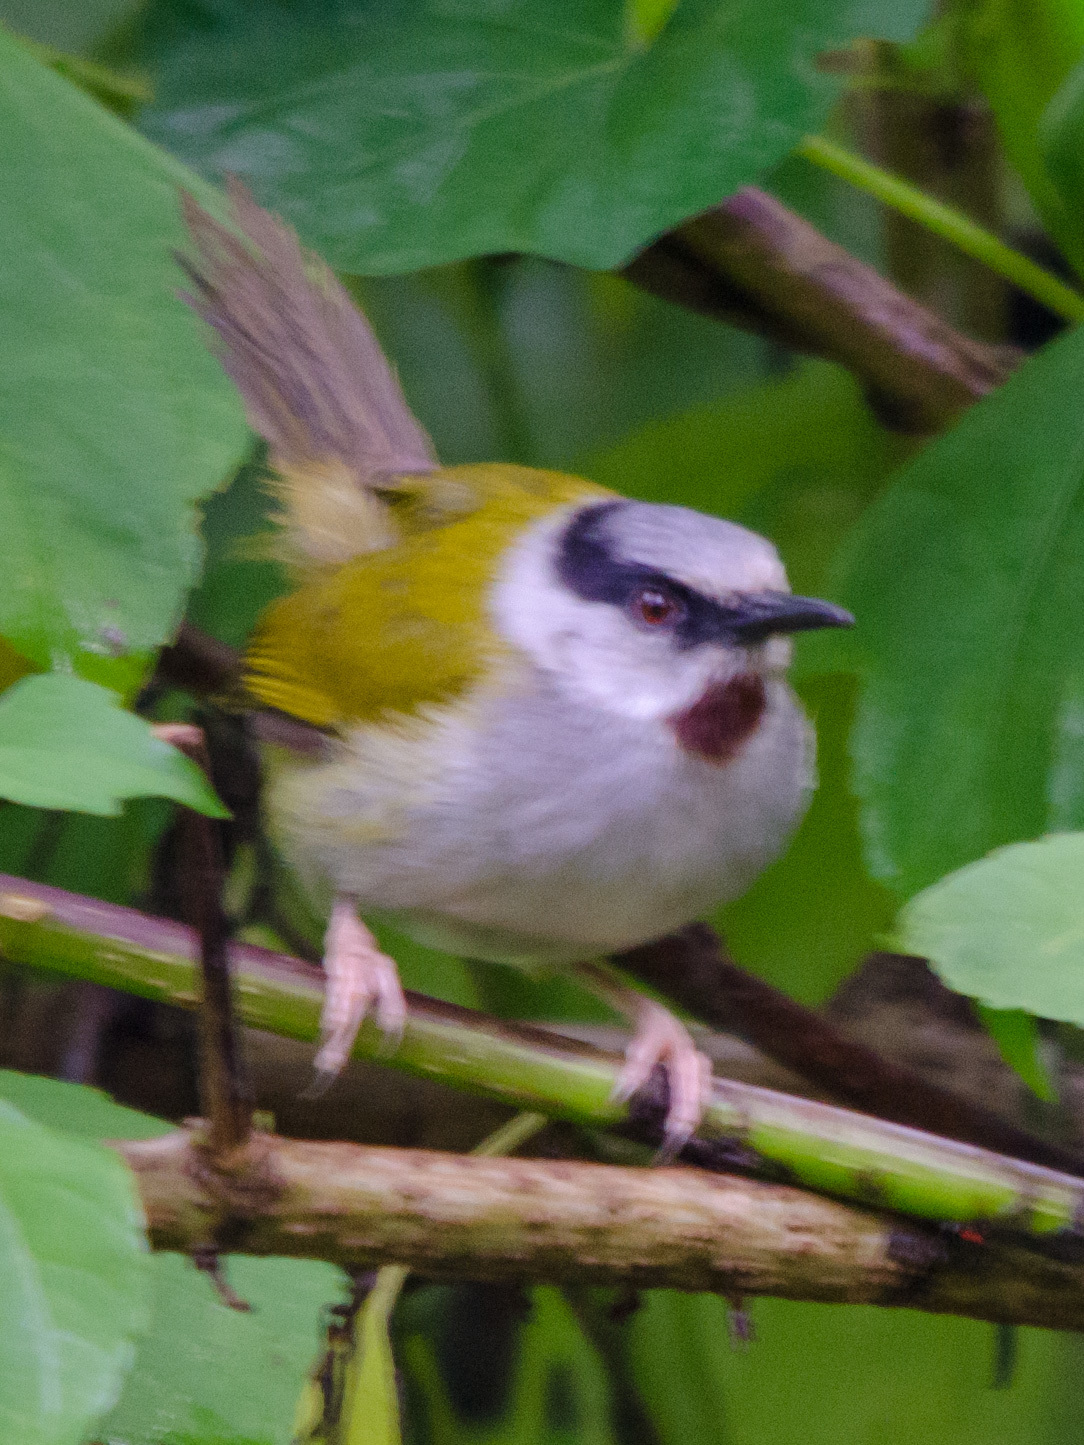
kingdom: Animalia
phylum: Chordata
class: Aves
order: Passeriformes
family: Cisticolidae
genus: Eminia
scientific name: Eminia lepida
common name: Grey-capped warbler
